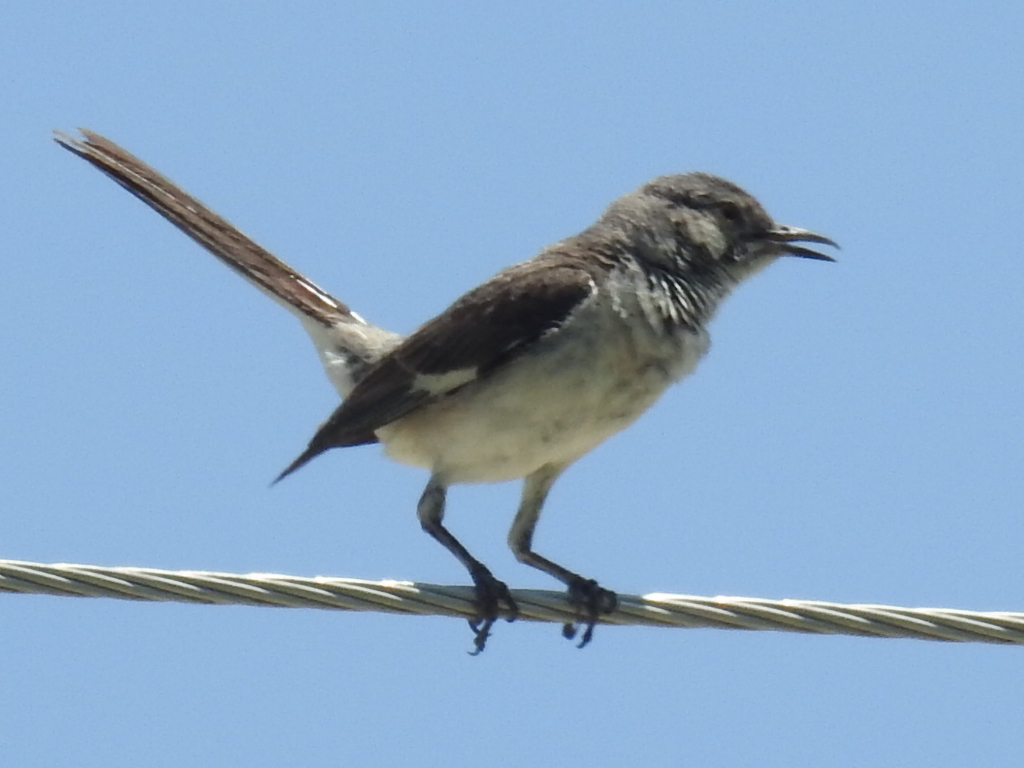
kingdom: Animalia
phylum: Chordata
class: Aves
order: Passeriformes
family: Mimidae
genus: Mimus
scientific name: Mimus polyglottos
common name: Northern mockingbird
